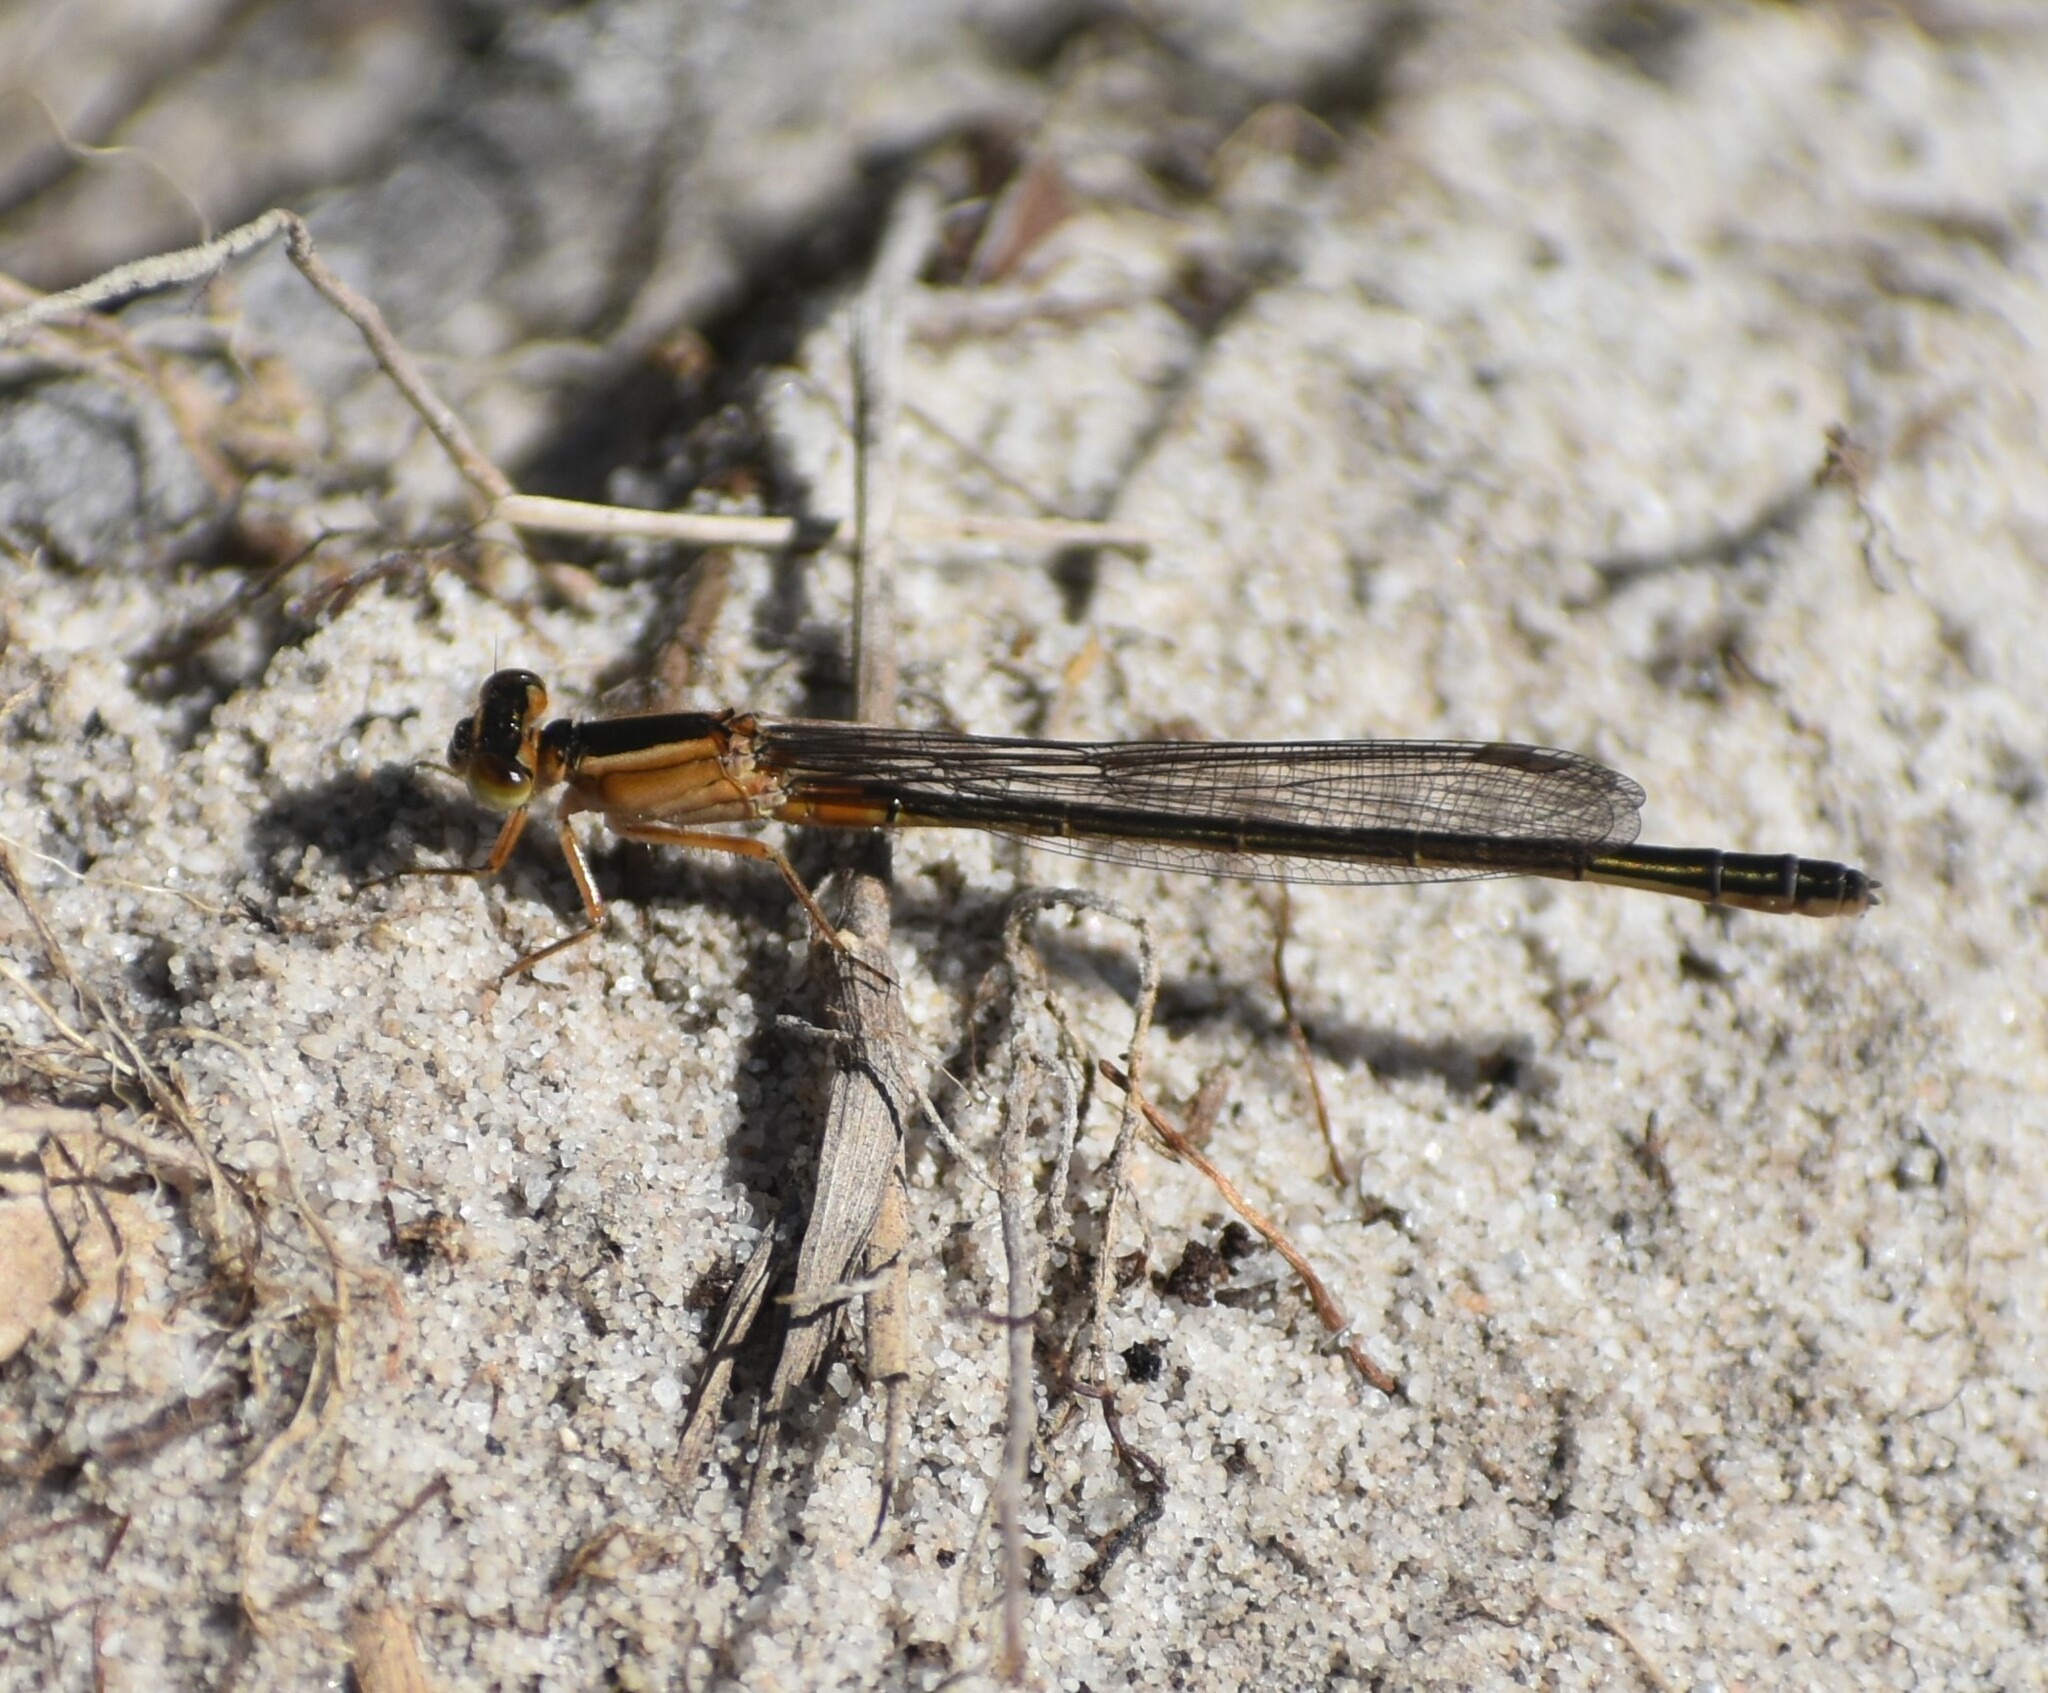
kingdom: Animalia
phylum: Arthropoda
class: Insecta
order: Odonata
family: Coenagrionidae
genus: Ischnura
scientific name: Ischnura senegalensis
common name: Tropical bluetail
